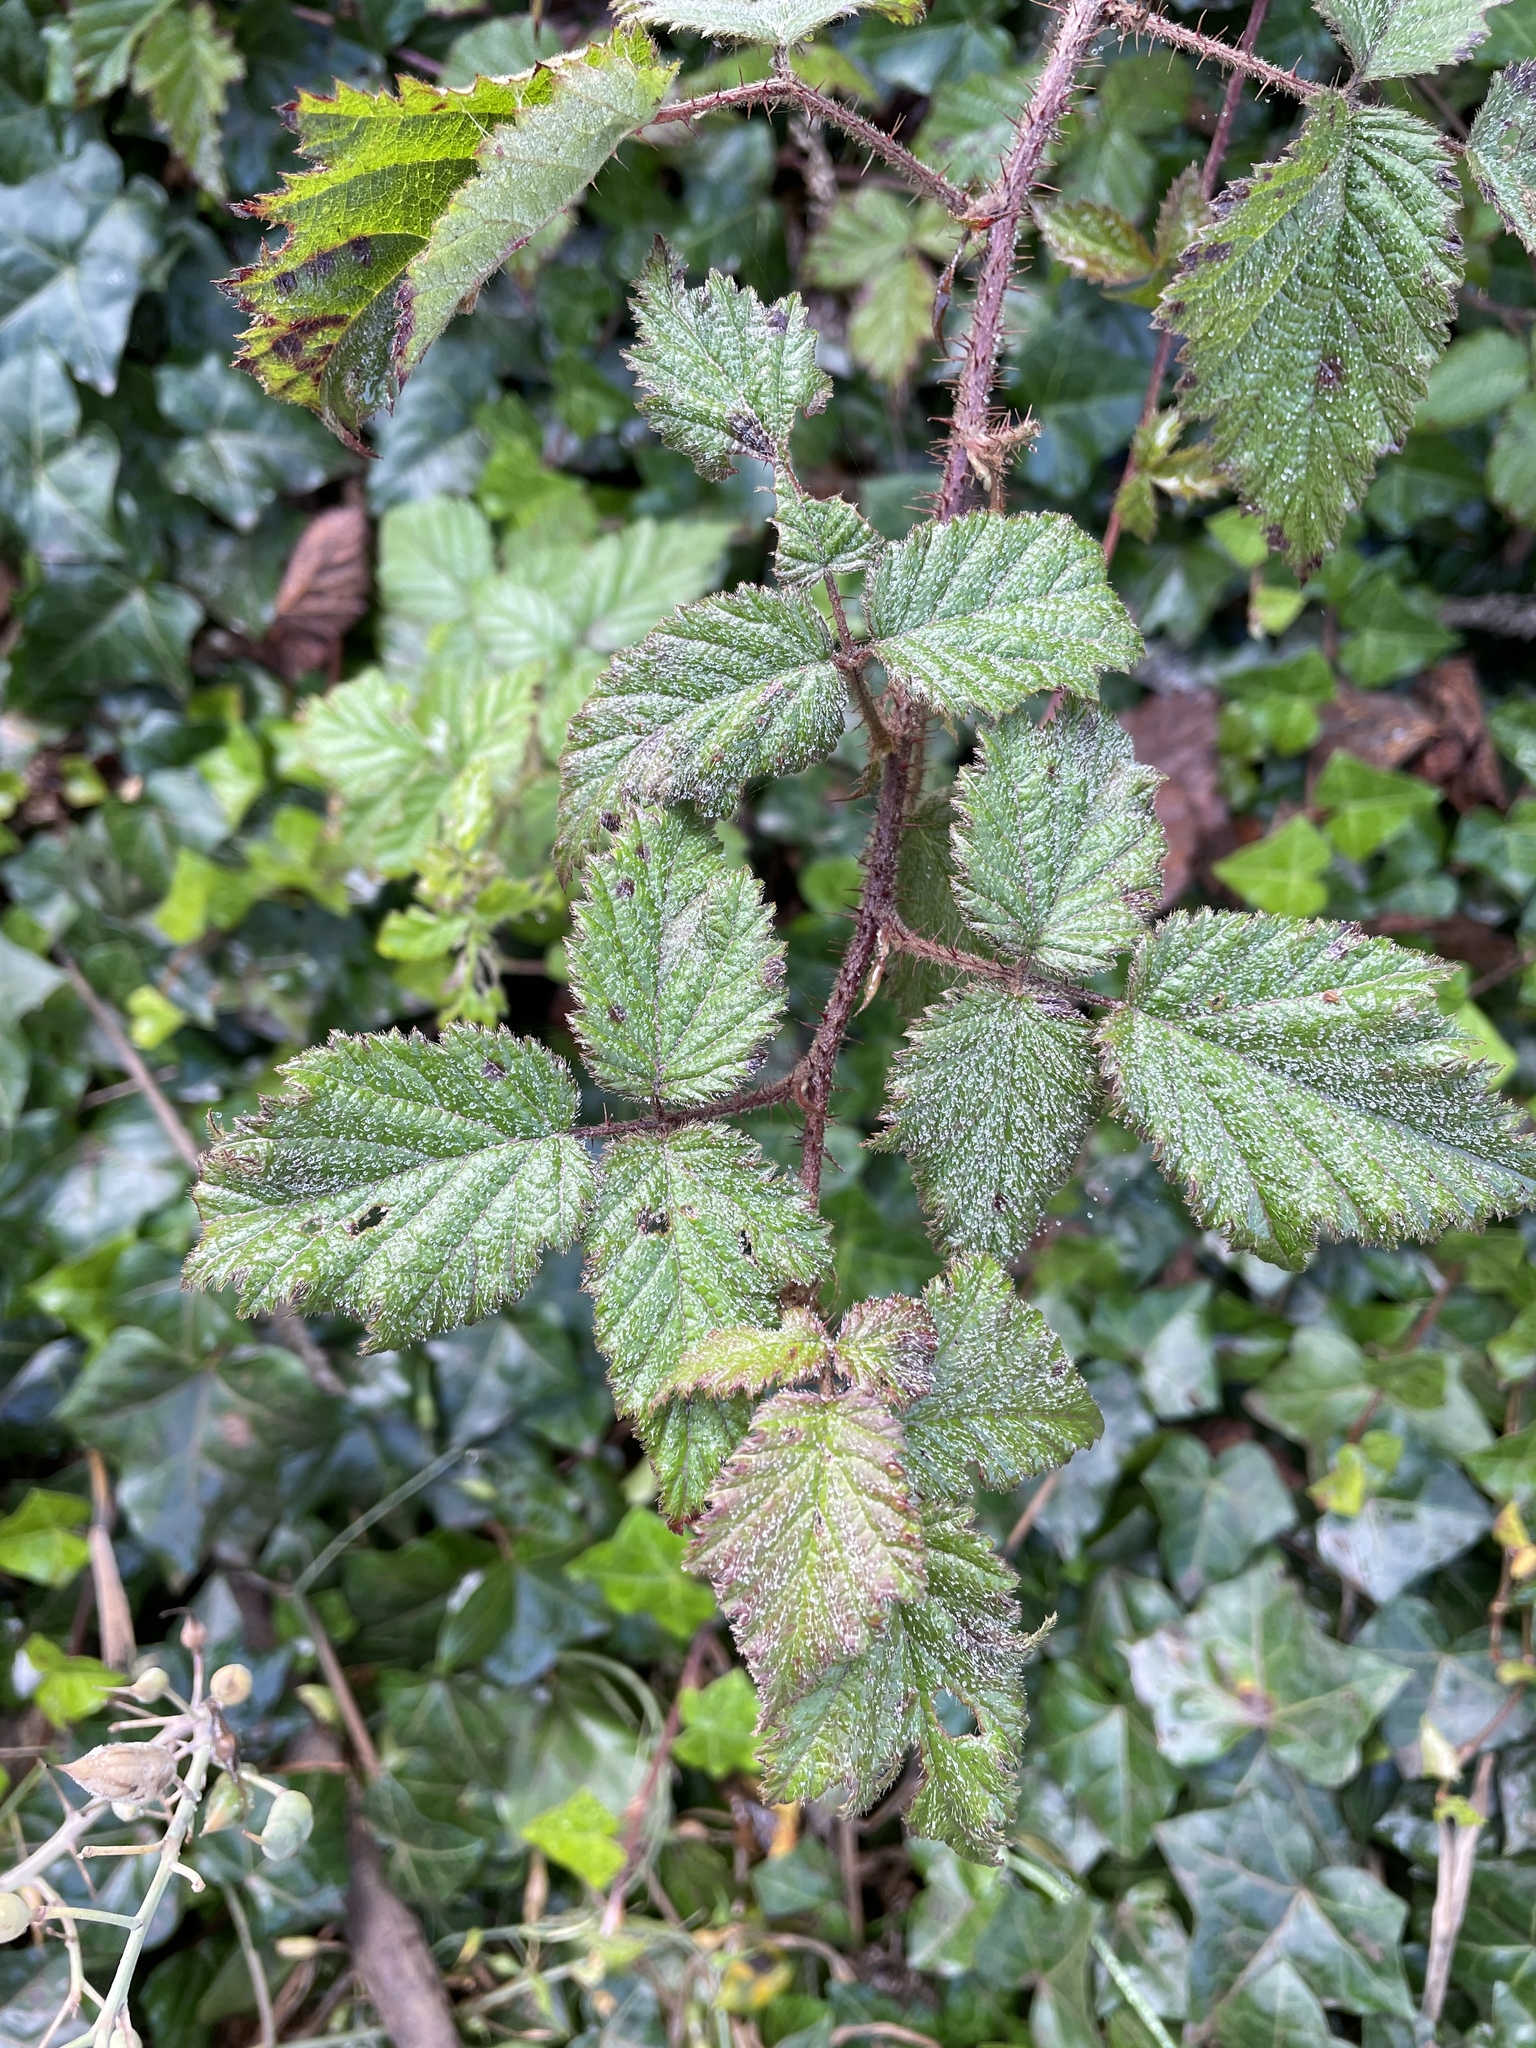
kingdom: Plantae
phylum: Tracheophyta
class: Magnoliopsida
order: Rosales
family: Rosaceae
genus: Rubus
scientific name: Rubus ursinus
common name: Pacific blackberry
